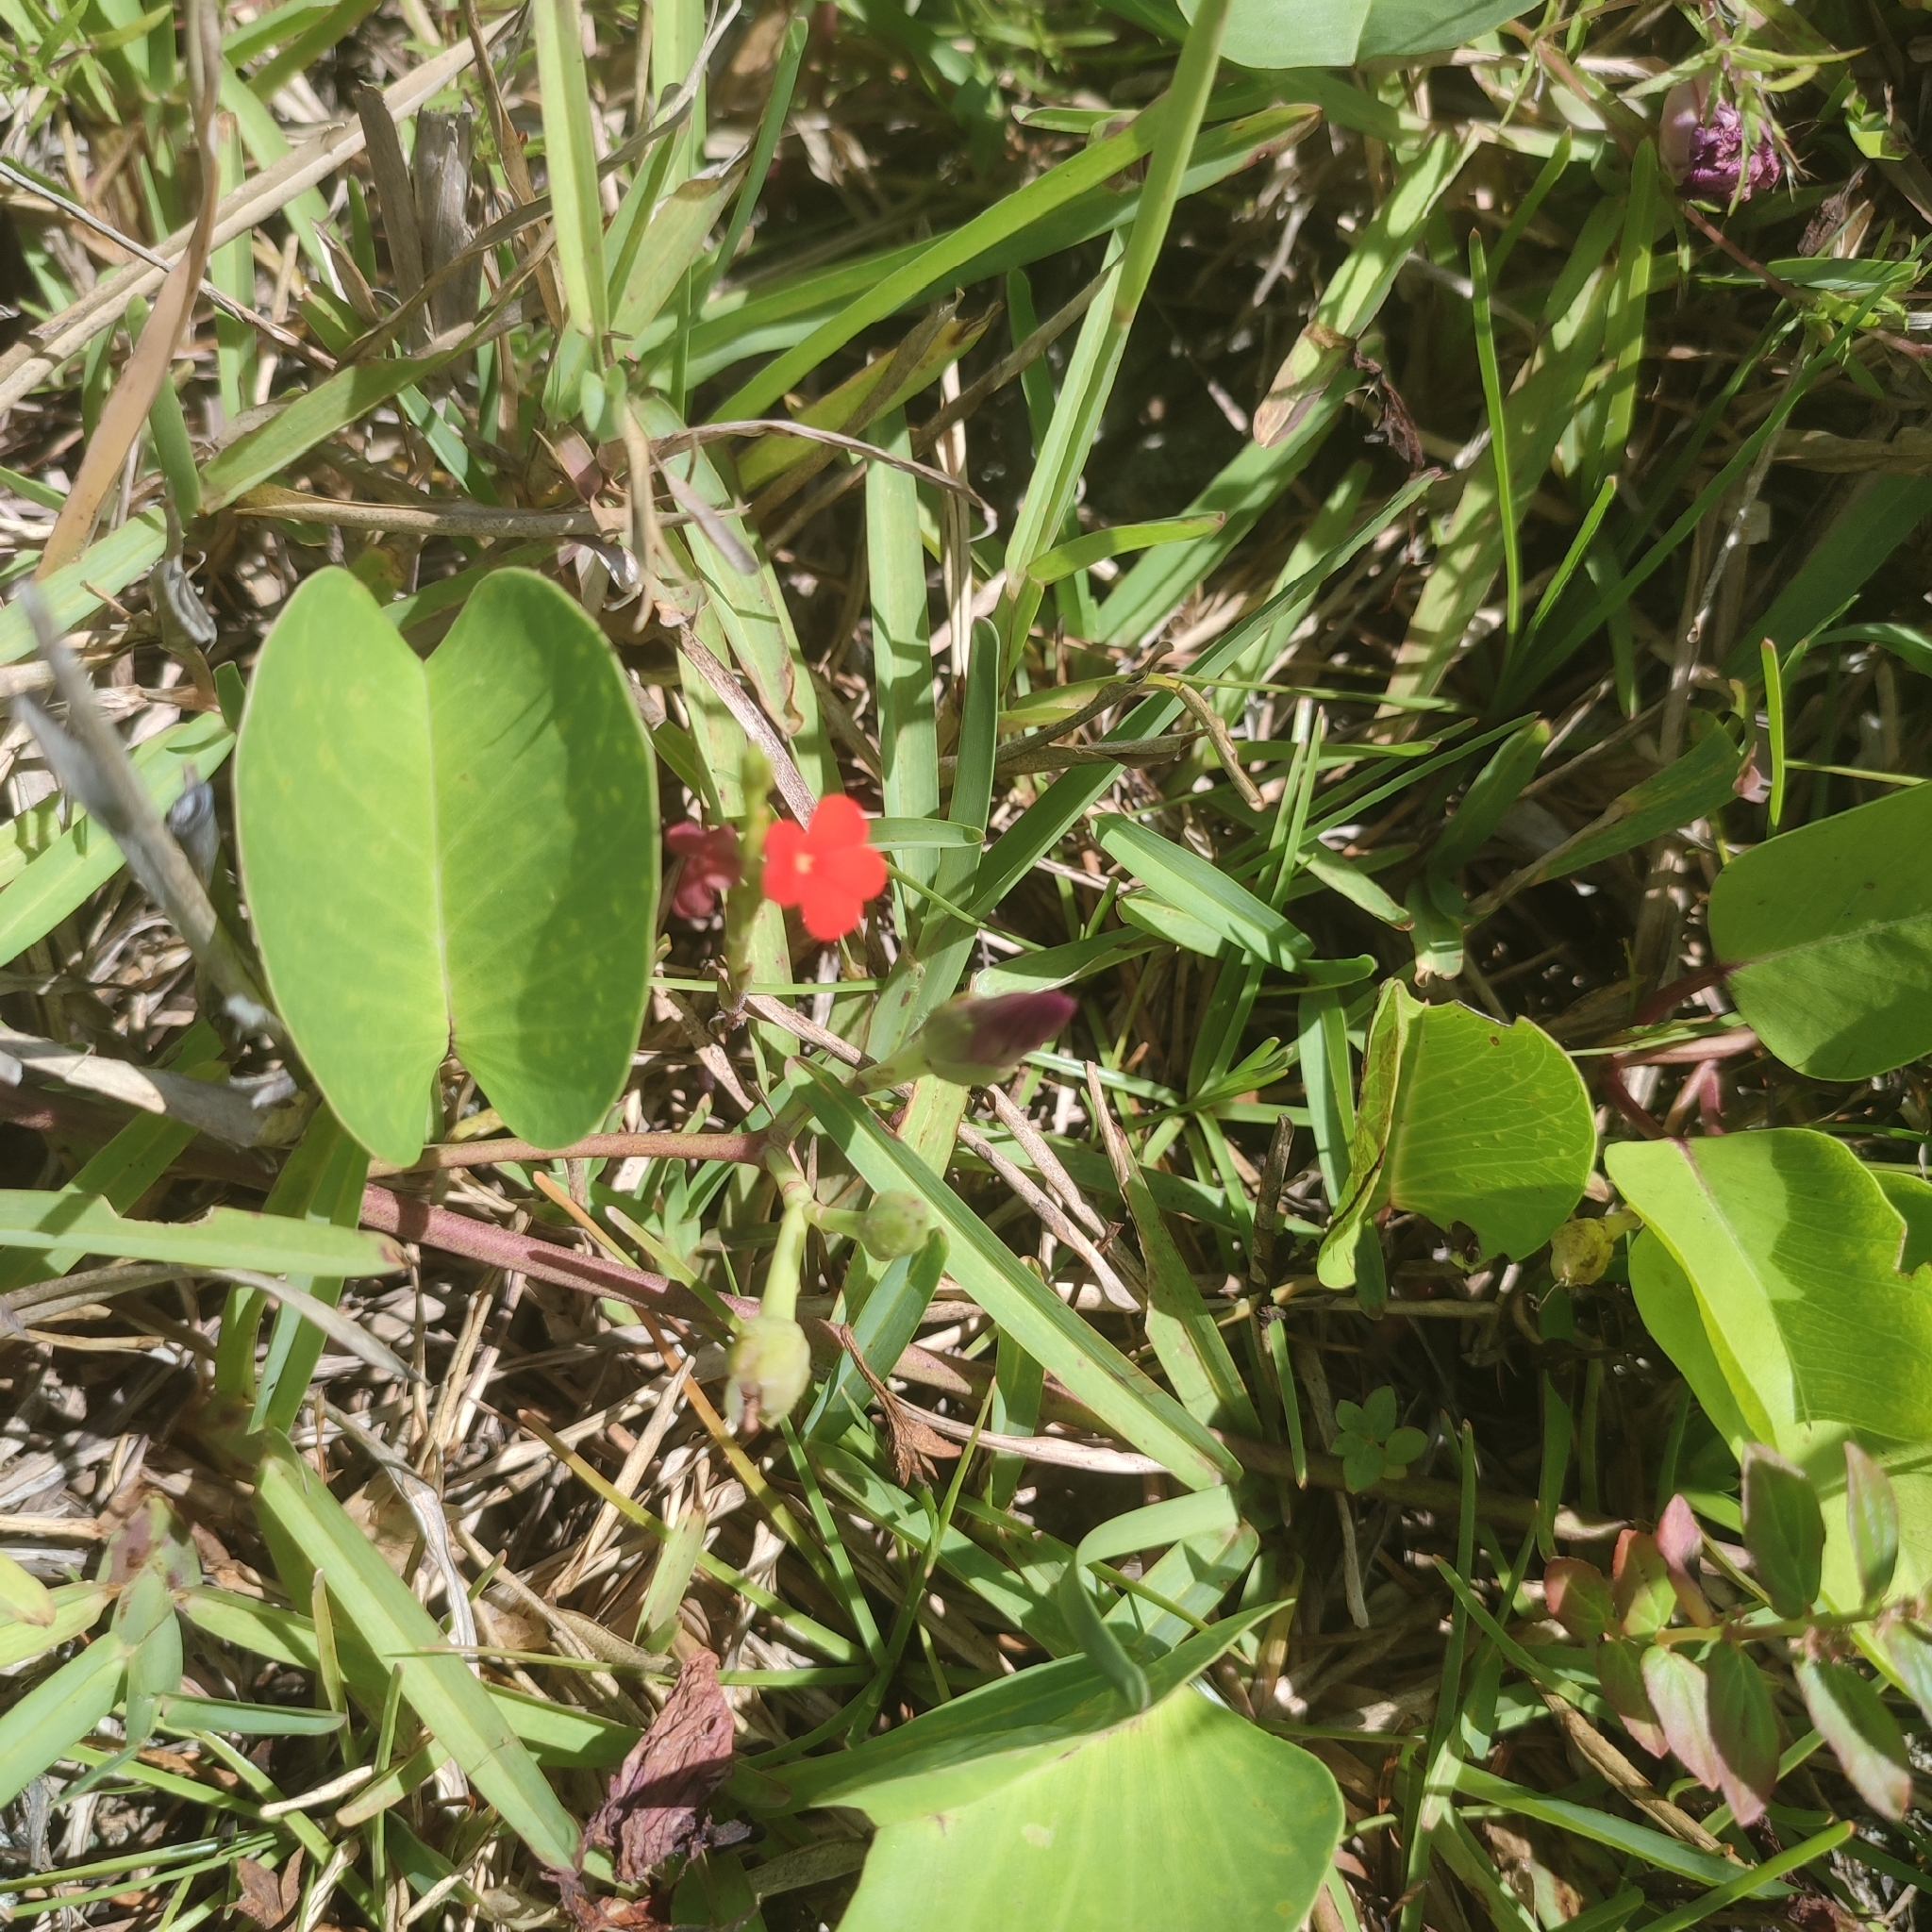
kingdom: Plantae
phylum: Tracheophyta
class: Magnoliopsida
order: Lamiales
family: Orobanchaceae
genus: Striga
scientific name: Striga asiatica
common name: Asiatic witchweed
